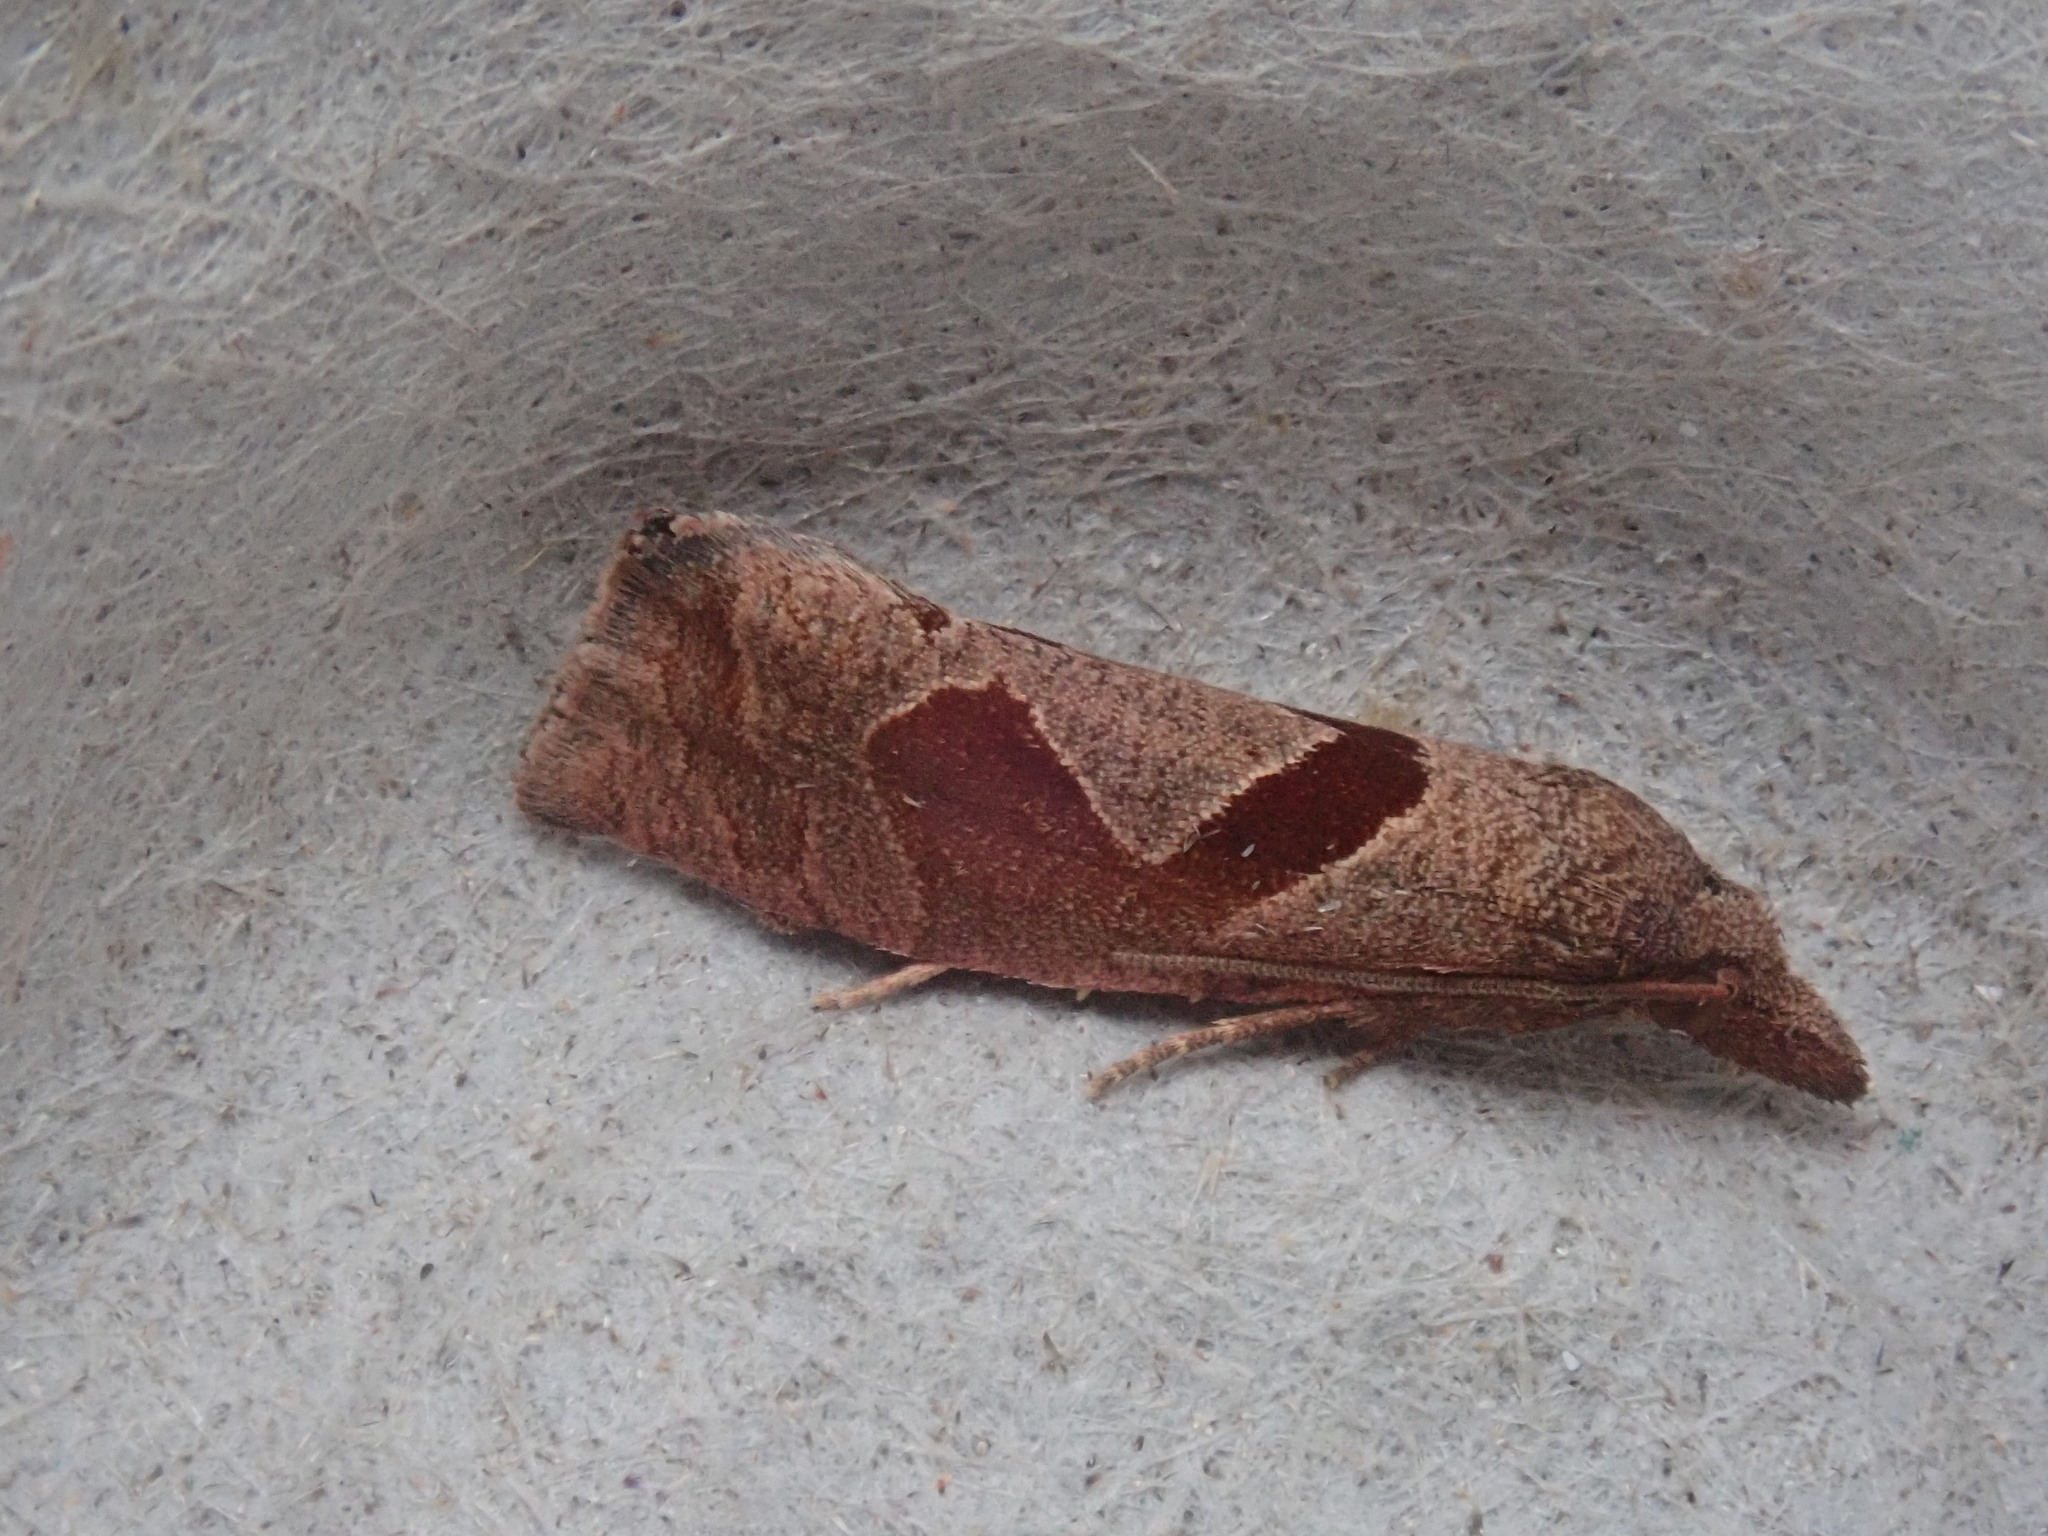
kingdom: Animalia
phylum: Arthropoda
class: Insecta
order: Lepidoptera
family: Tortricidae
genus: Pelochrista
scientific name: Pelochrista similiana
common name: Similar eucosma
